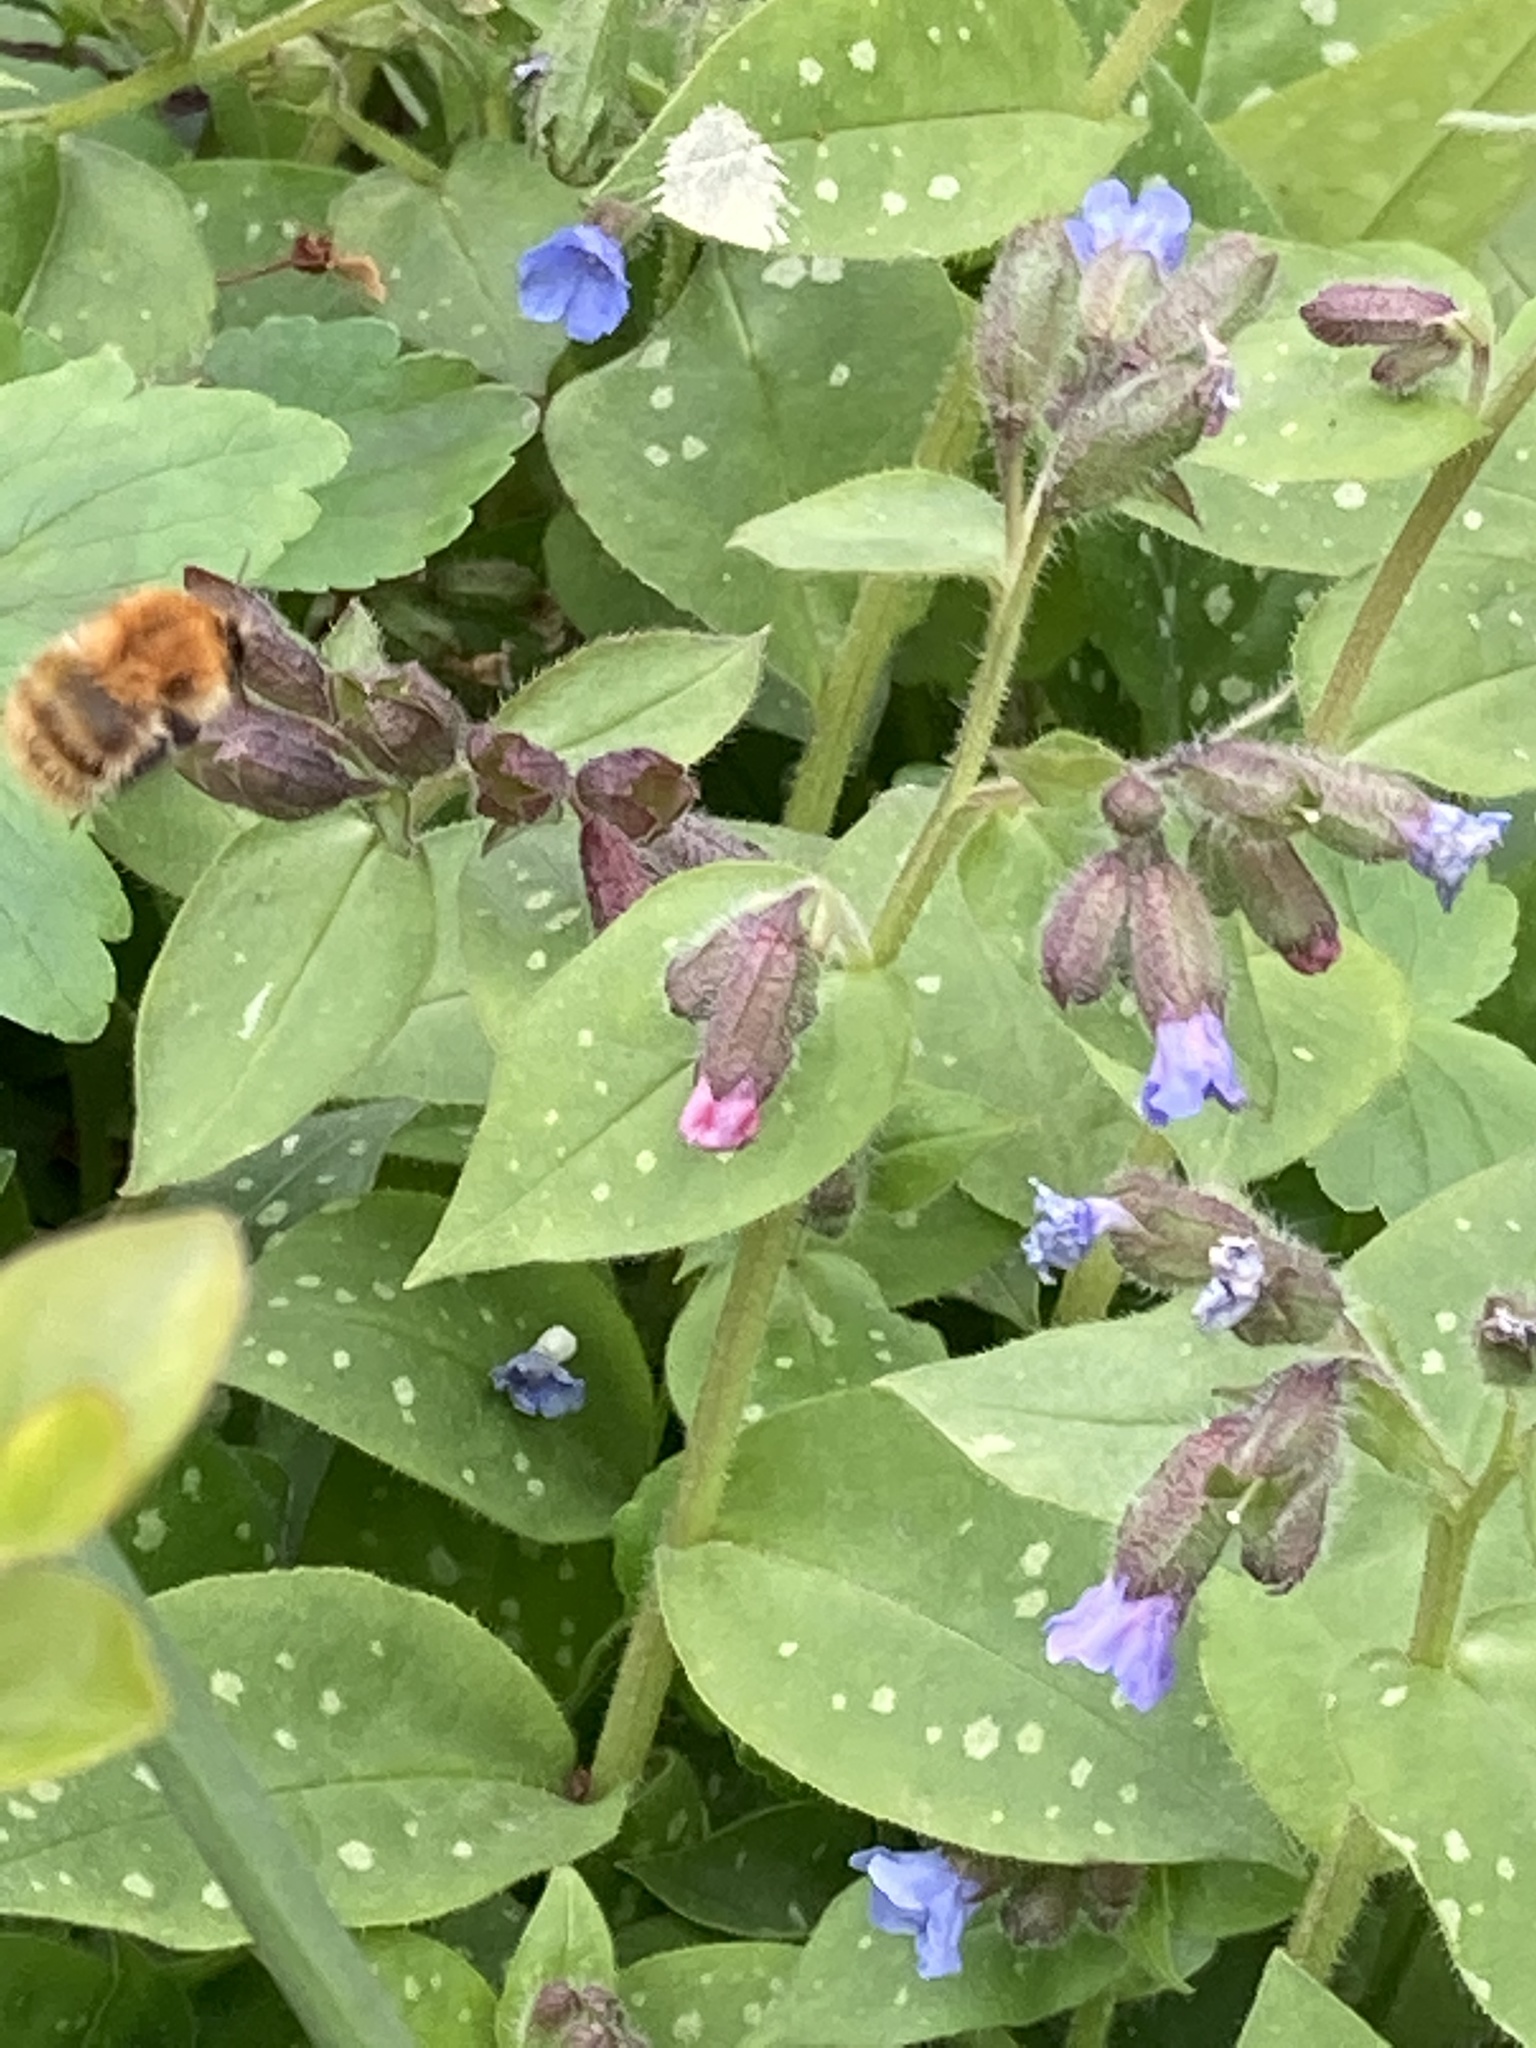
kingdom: Animalia
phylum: Arthropoda
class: Insecta
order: Hymenoptera
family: Apidae
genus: Bombus
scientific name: Bombus pascuorum
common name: Common carder bee
